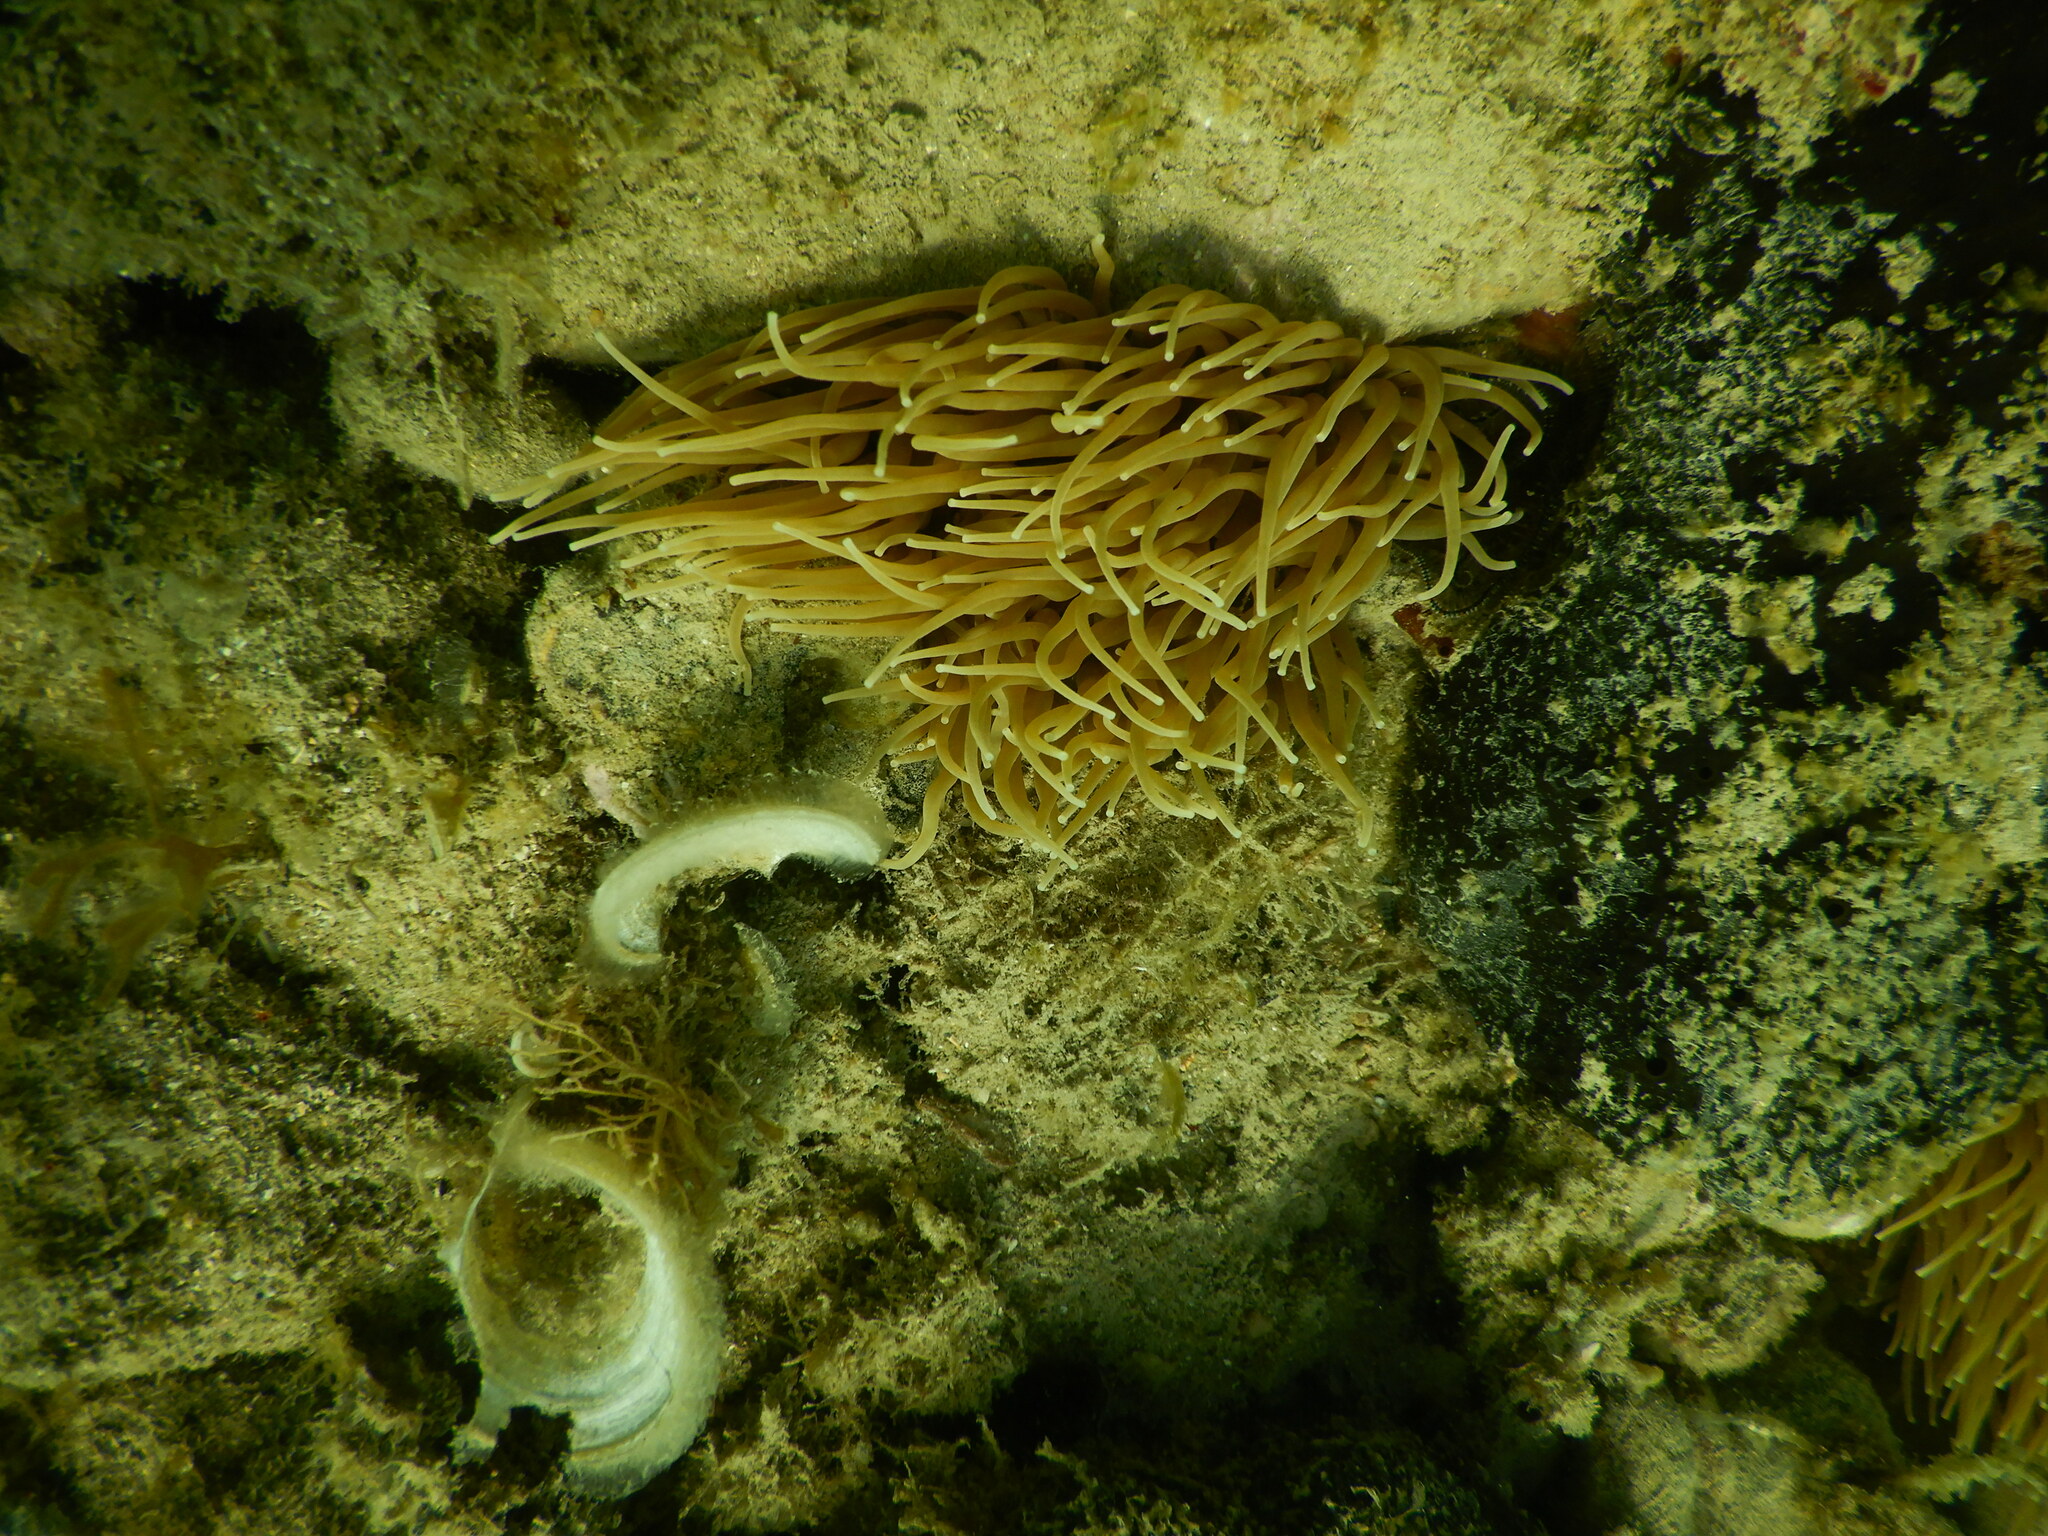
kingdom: Animalia
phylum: Cnidaria
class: Anthozoa
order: Actiniaria
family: Actiniidae
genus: Anemonia
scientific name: Anemonia viridis
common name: Snakelocks anemone
